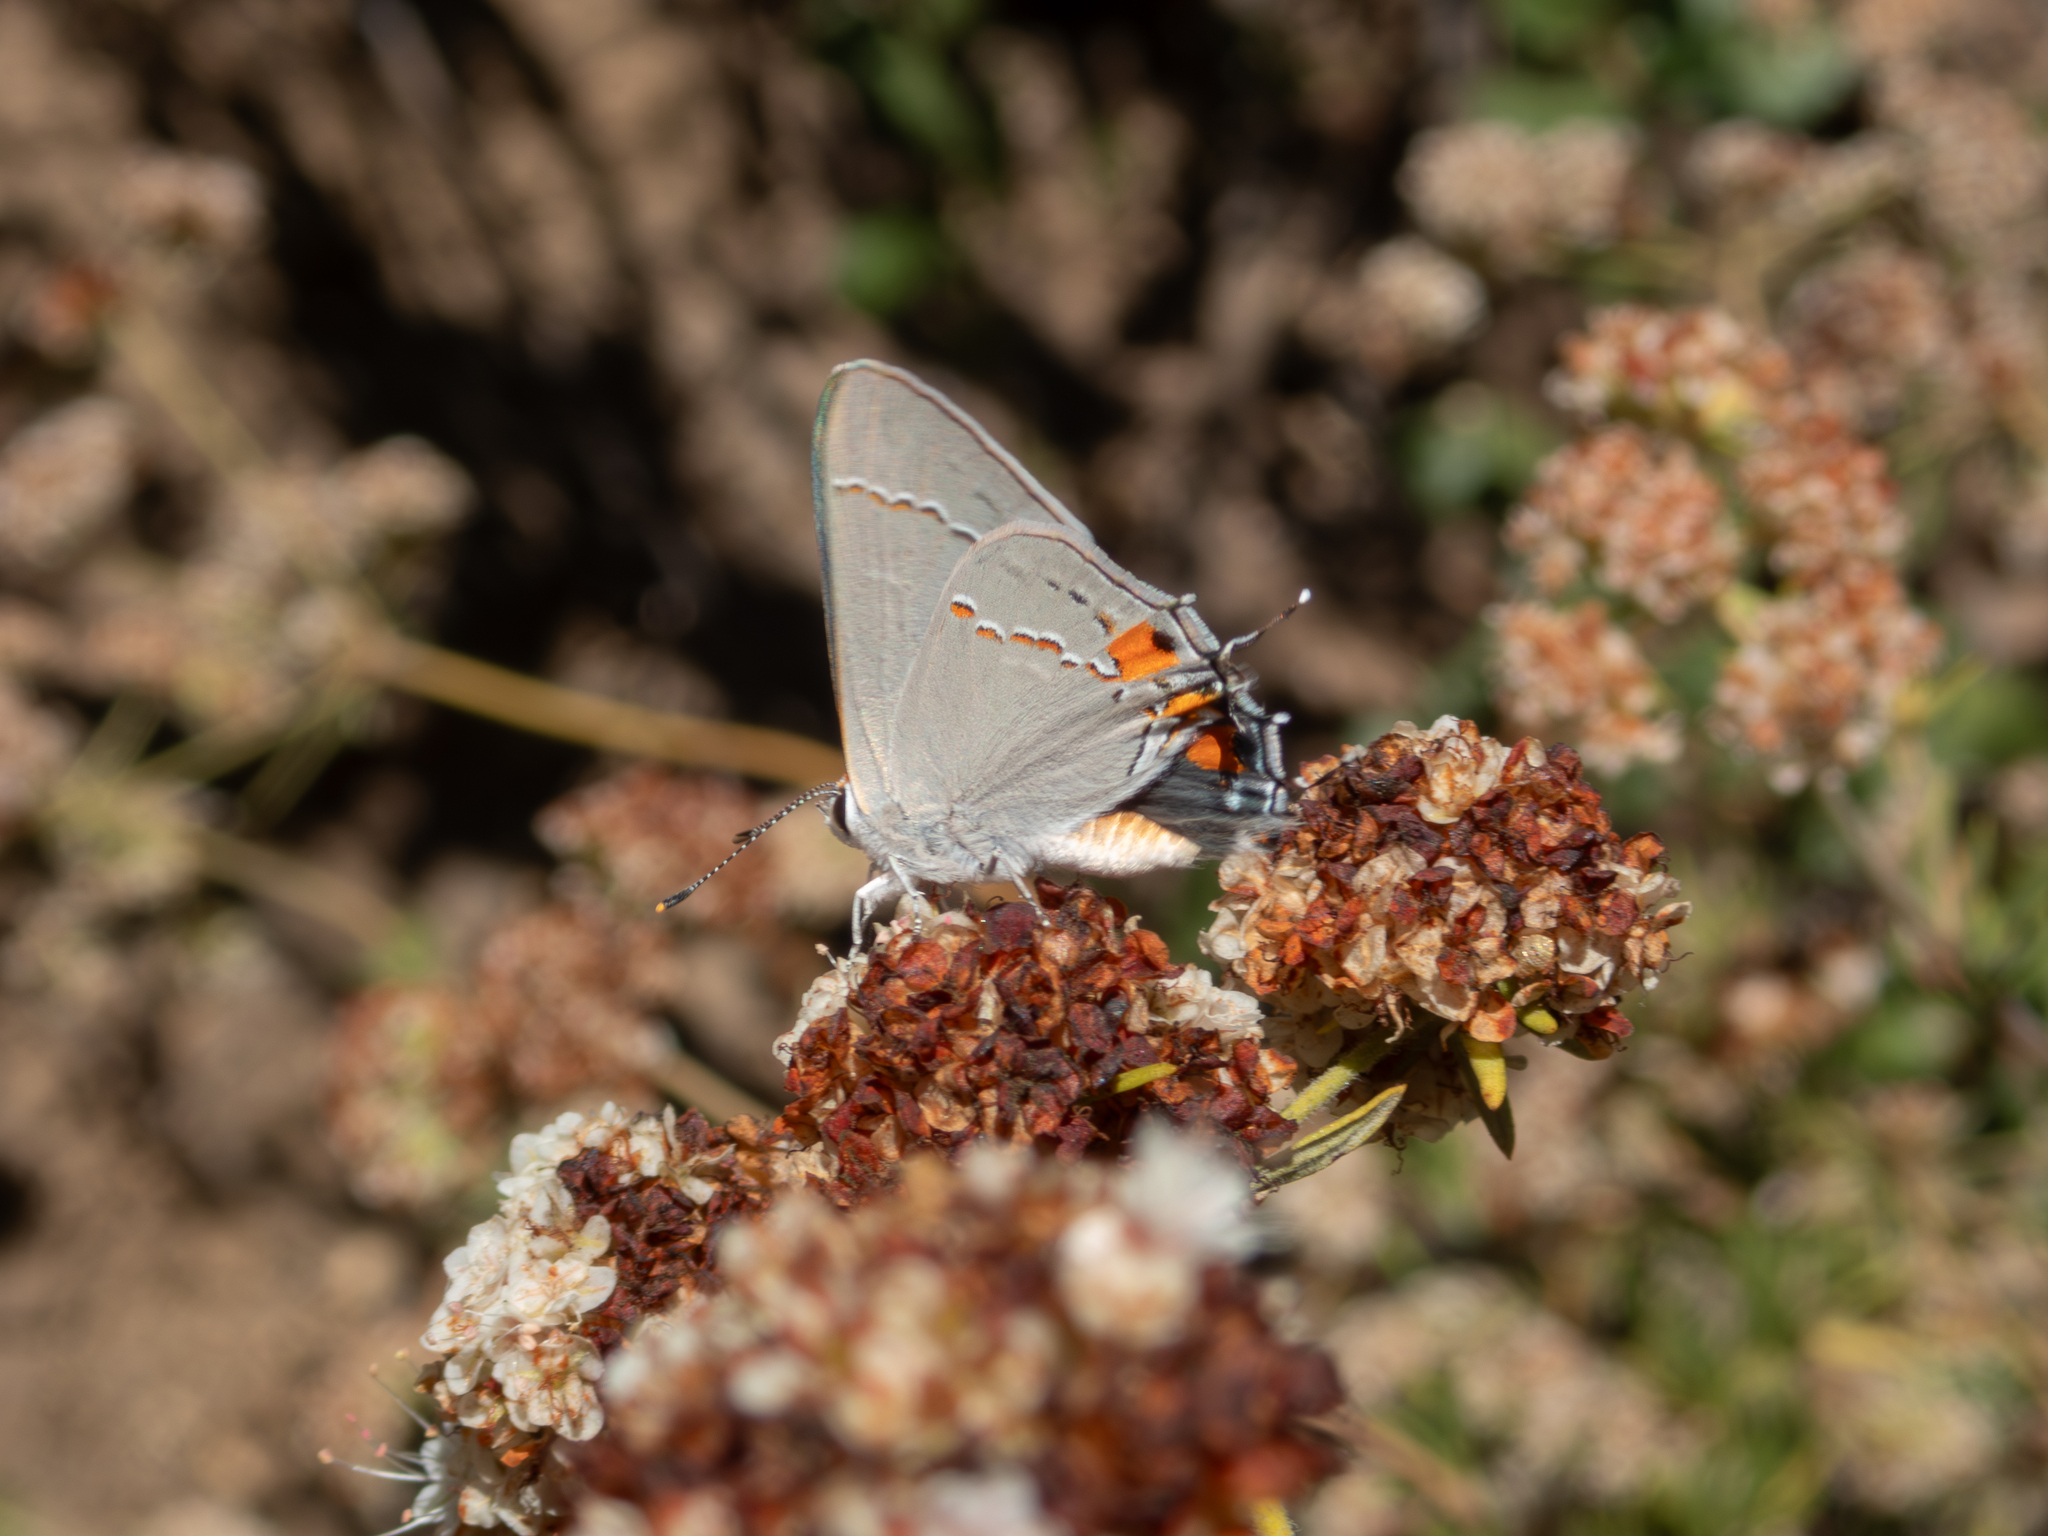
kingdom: Animalia
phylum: Arthropoda
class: Insecta
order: Lepidoptera
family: Lycaenidae
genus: Strymon
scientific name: Strymon melinus
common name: Gray hairstreak
